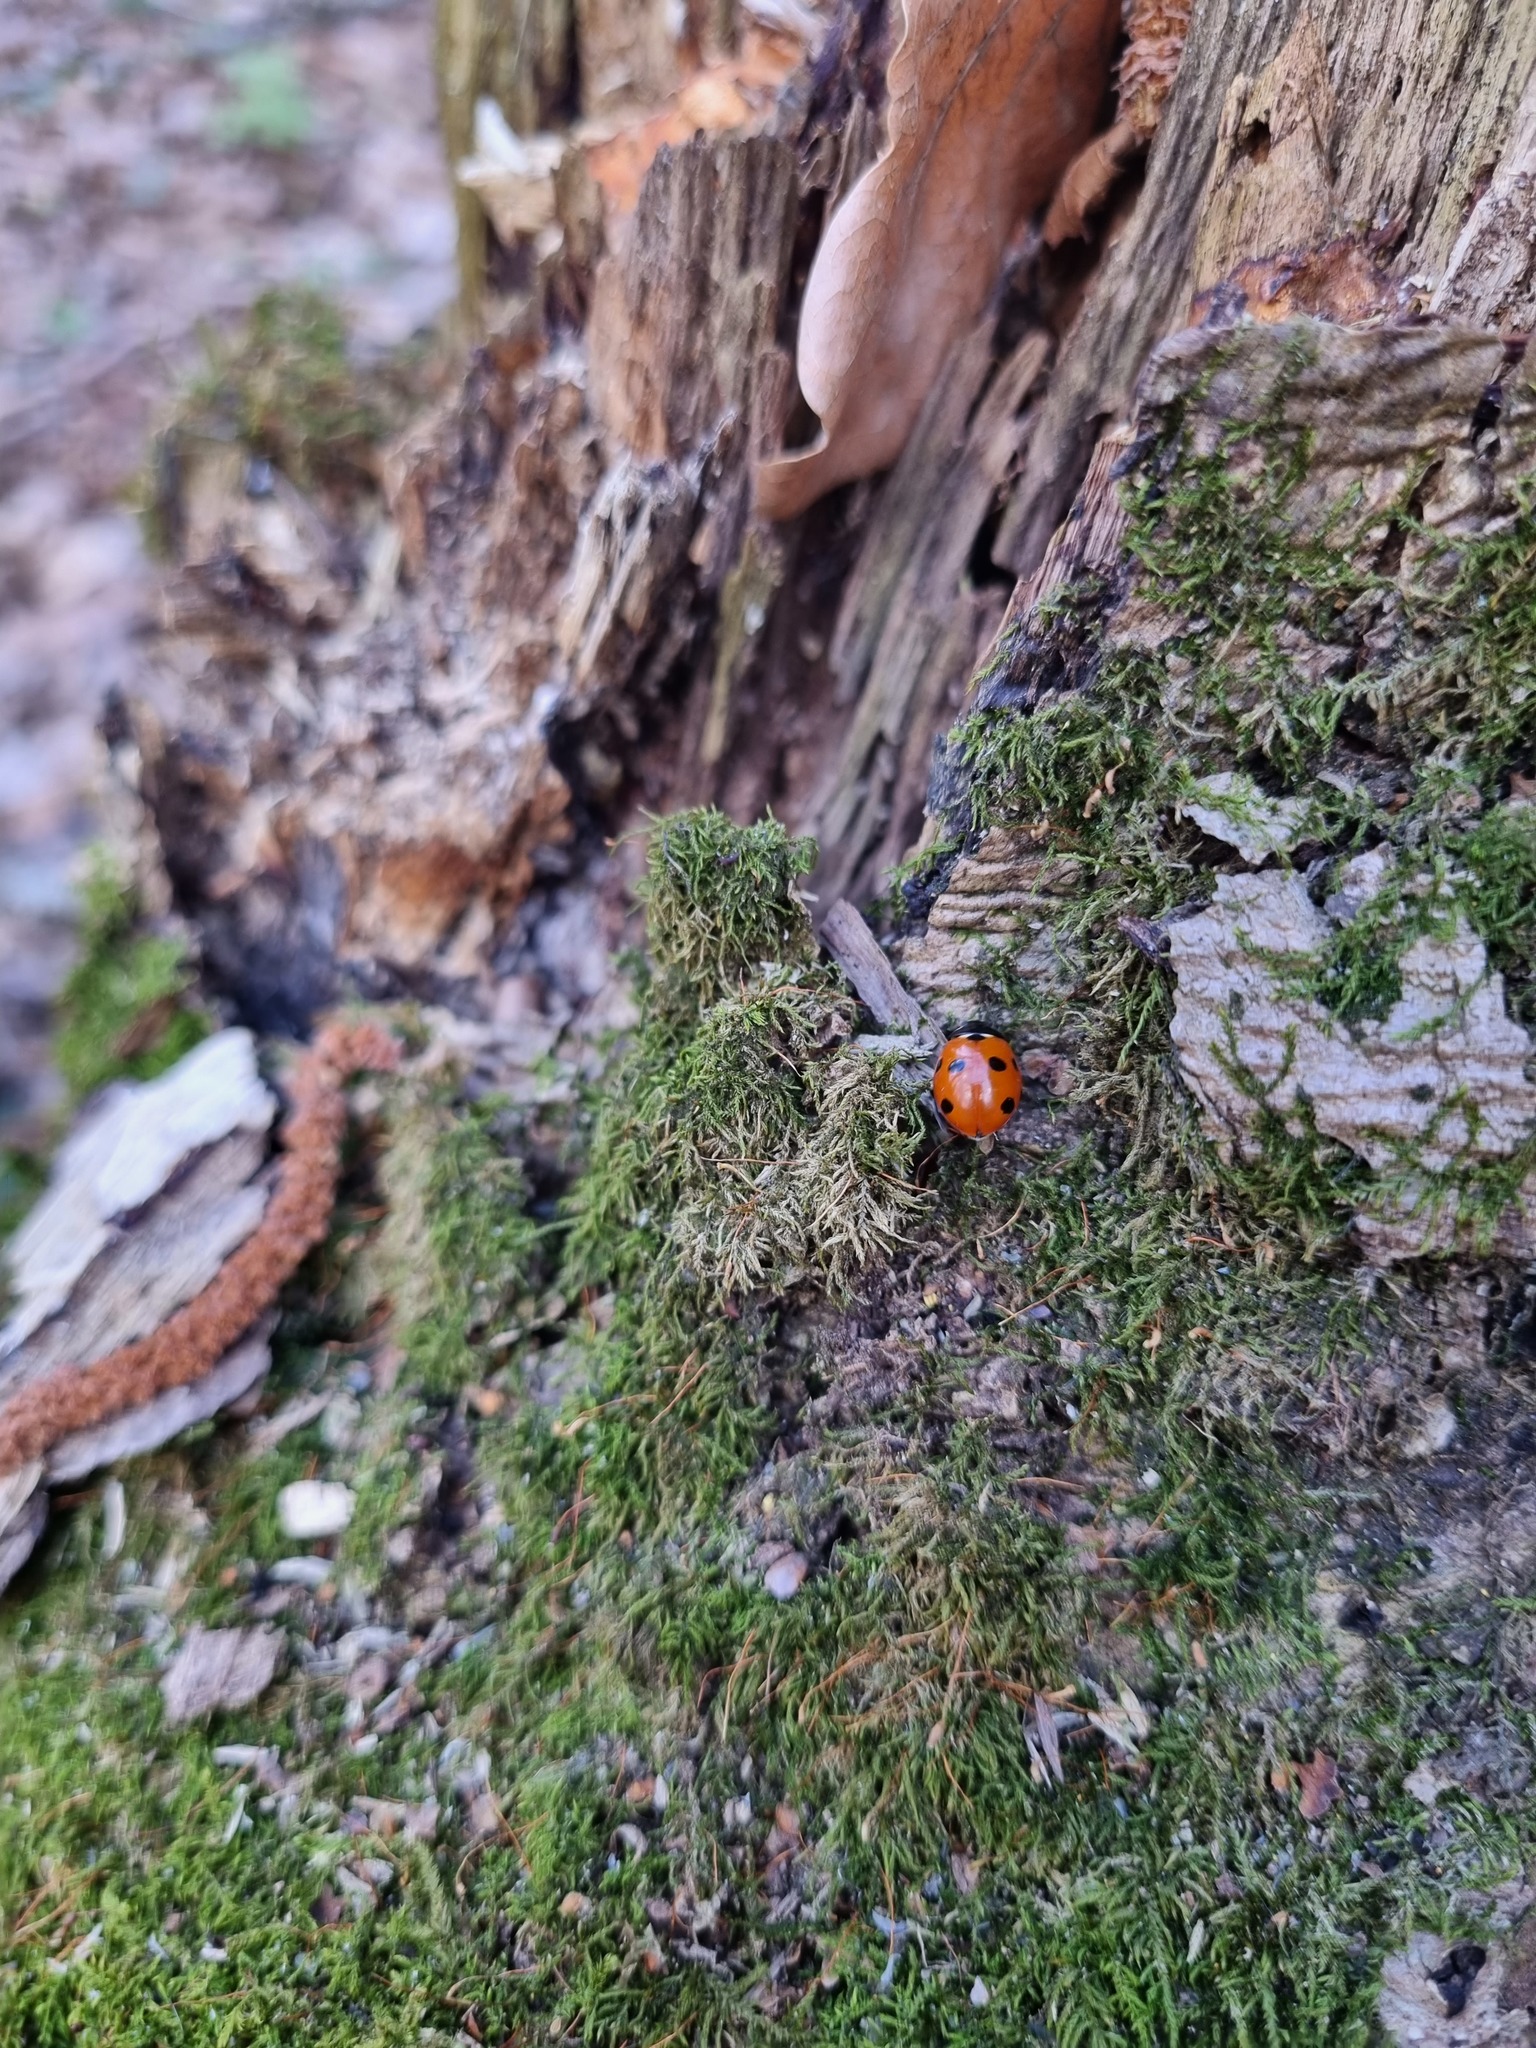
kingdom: Animalia
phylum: Arthropoda
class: Insecta
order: Coleoptera
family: Coccinellidae
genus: Coccinella
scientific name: Coccinella septempunctata
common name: Sevenspotted lady beetle
